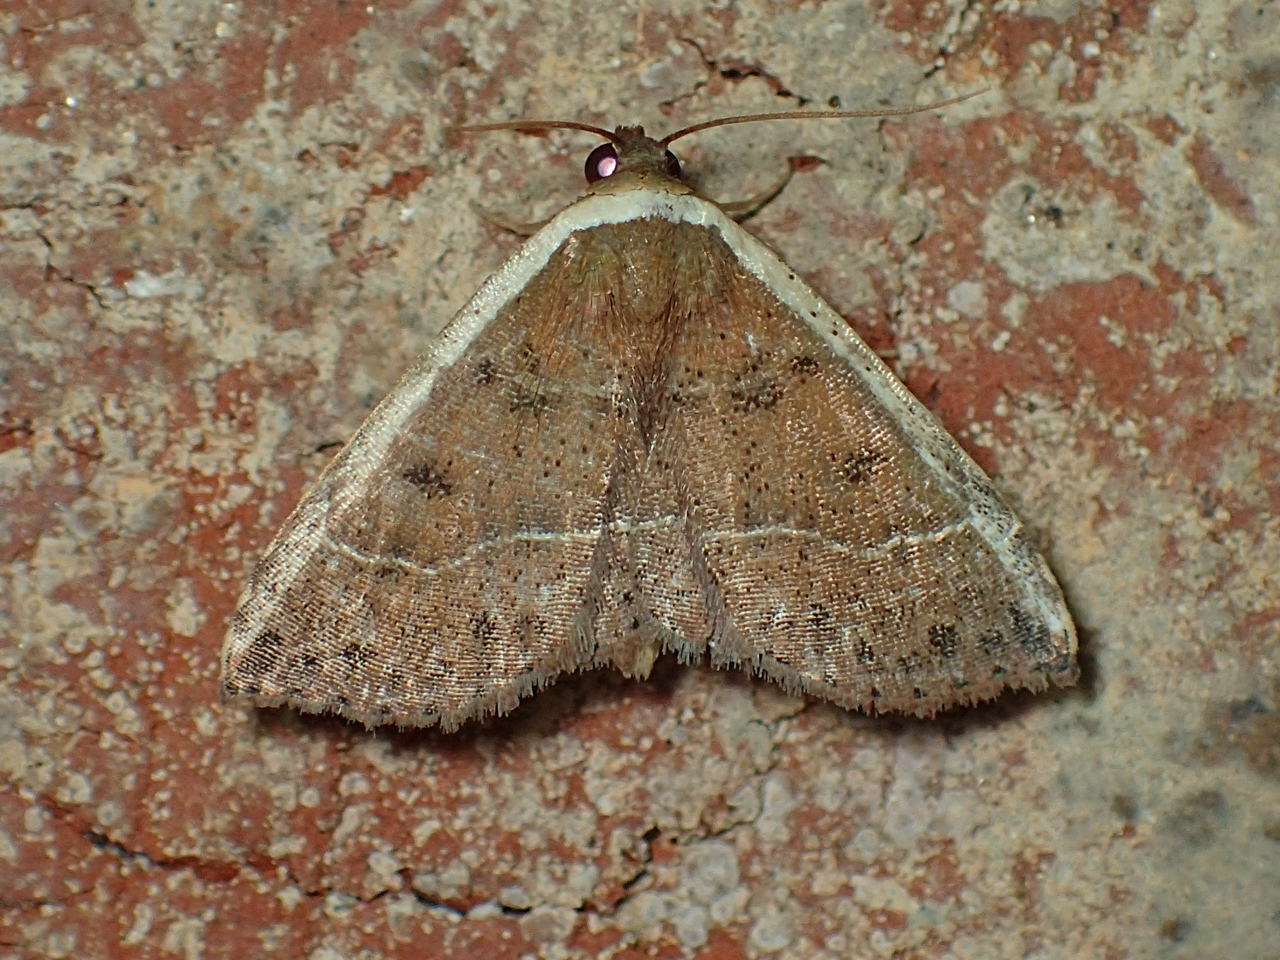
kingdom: Animalia
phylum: Arthropoda
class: Insecta
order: Lepidoptera
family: Noctuidae
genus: Ozarba
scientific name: Ozarba albocostaliata
